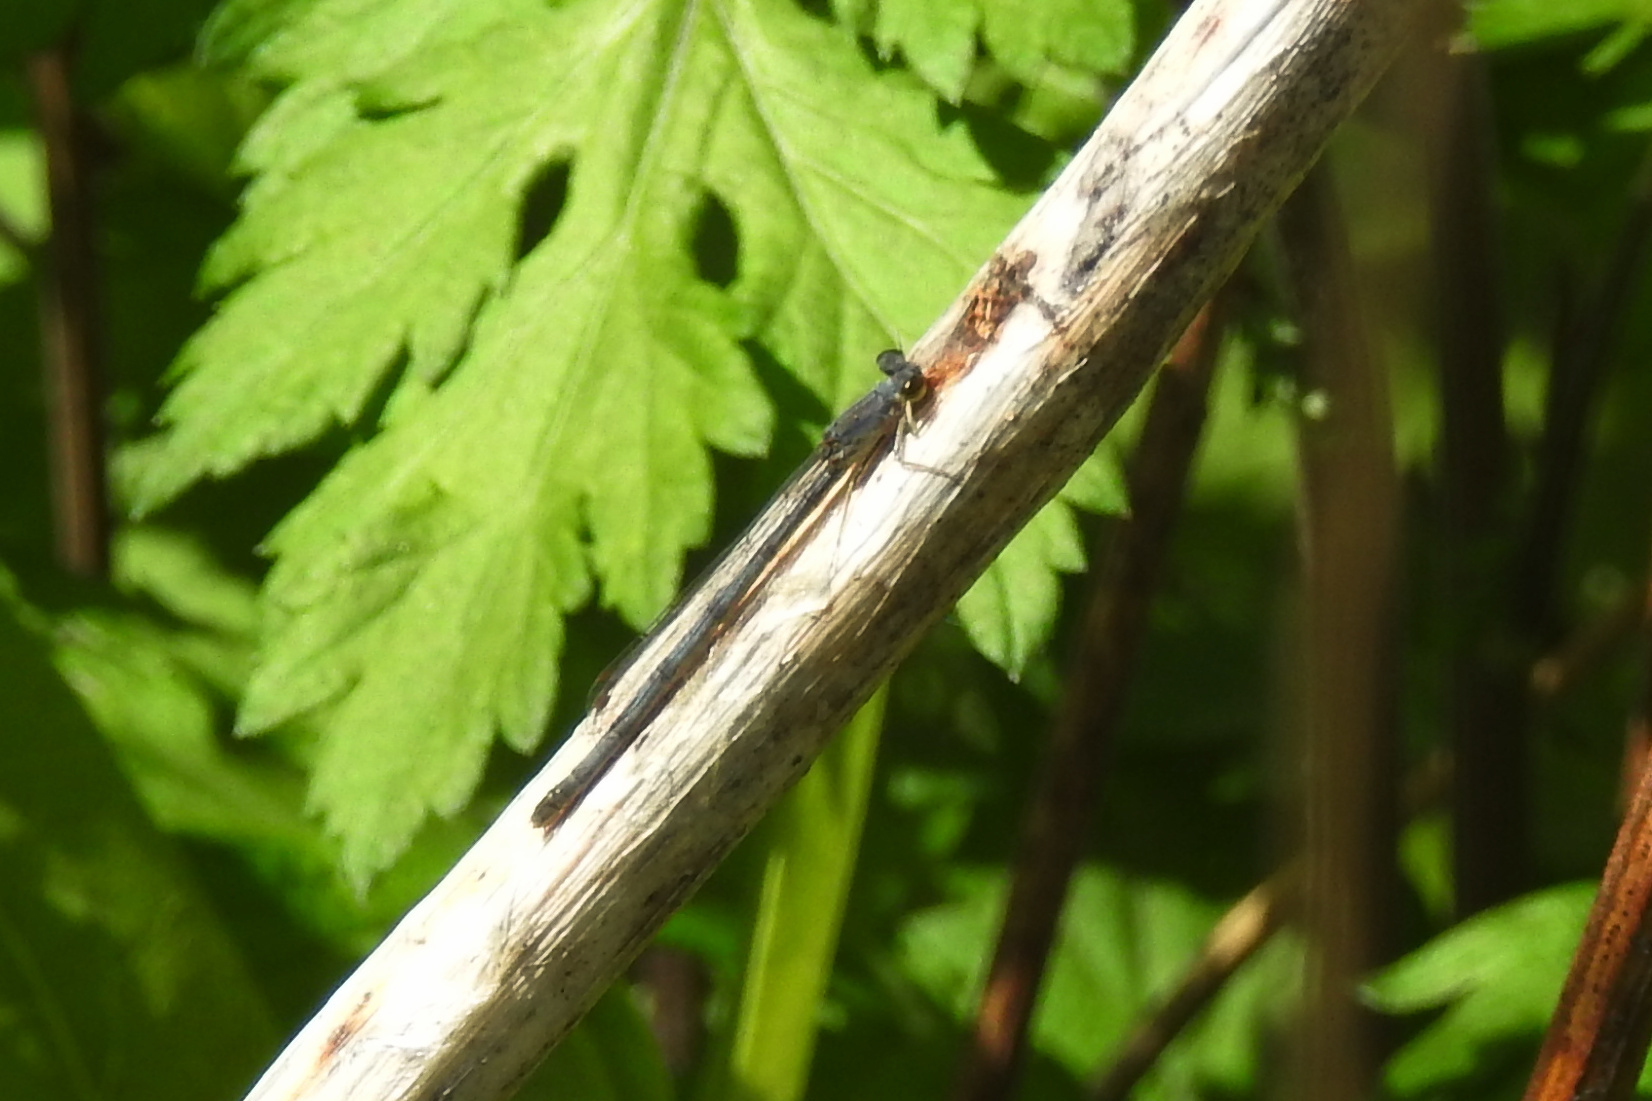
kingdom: Animalia
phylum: Arthropoda
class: Insecta
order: Odonata
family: Coenagrionidae
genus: Ischnura
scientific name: Ischnura posita
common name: Fragile forktail
